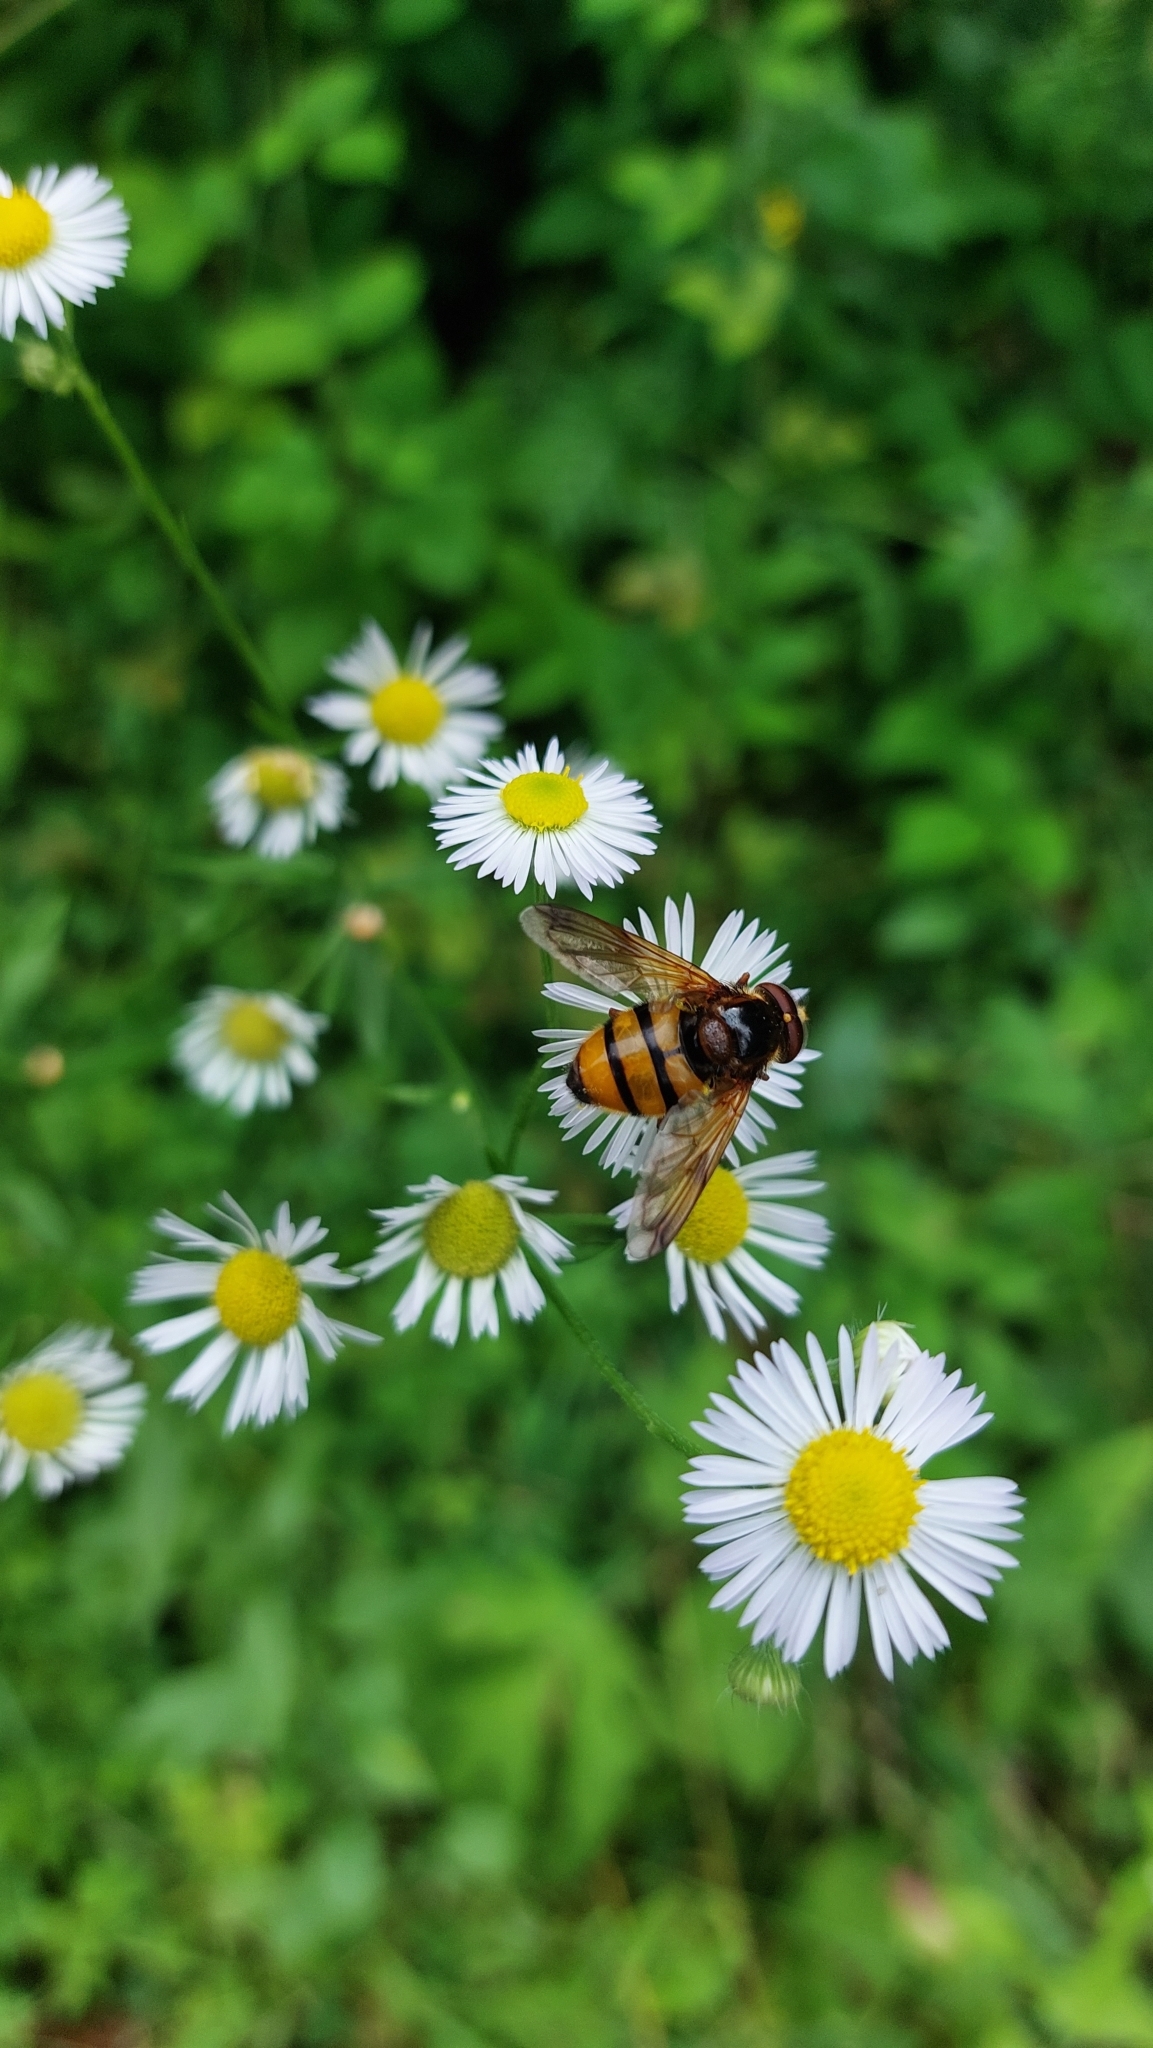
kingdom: Animalia
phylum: Arthropoda
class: Insecta
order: Diptera
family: Syrphidae
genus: Volucella
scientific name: Volucella inanis
